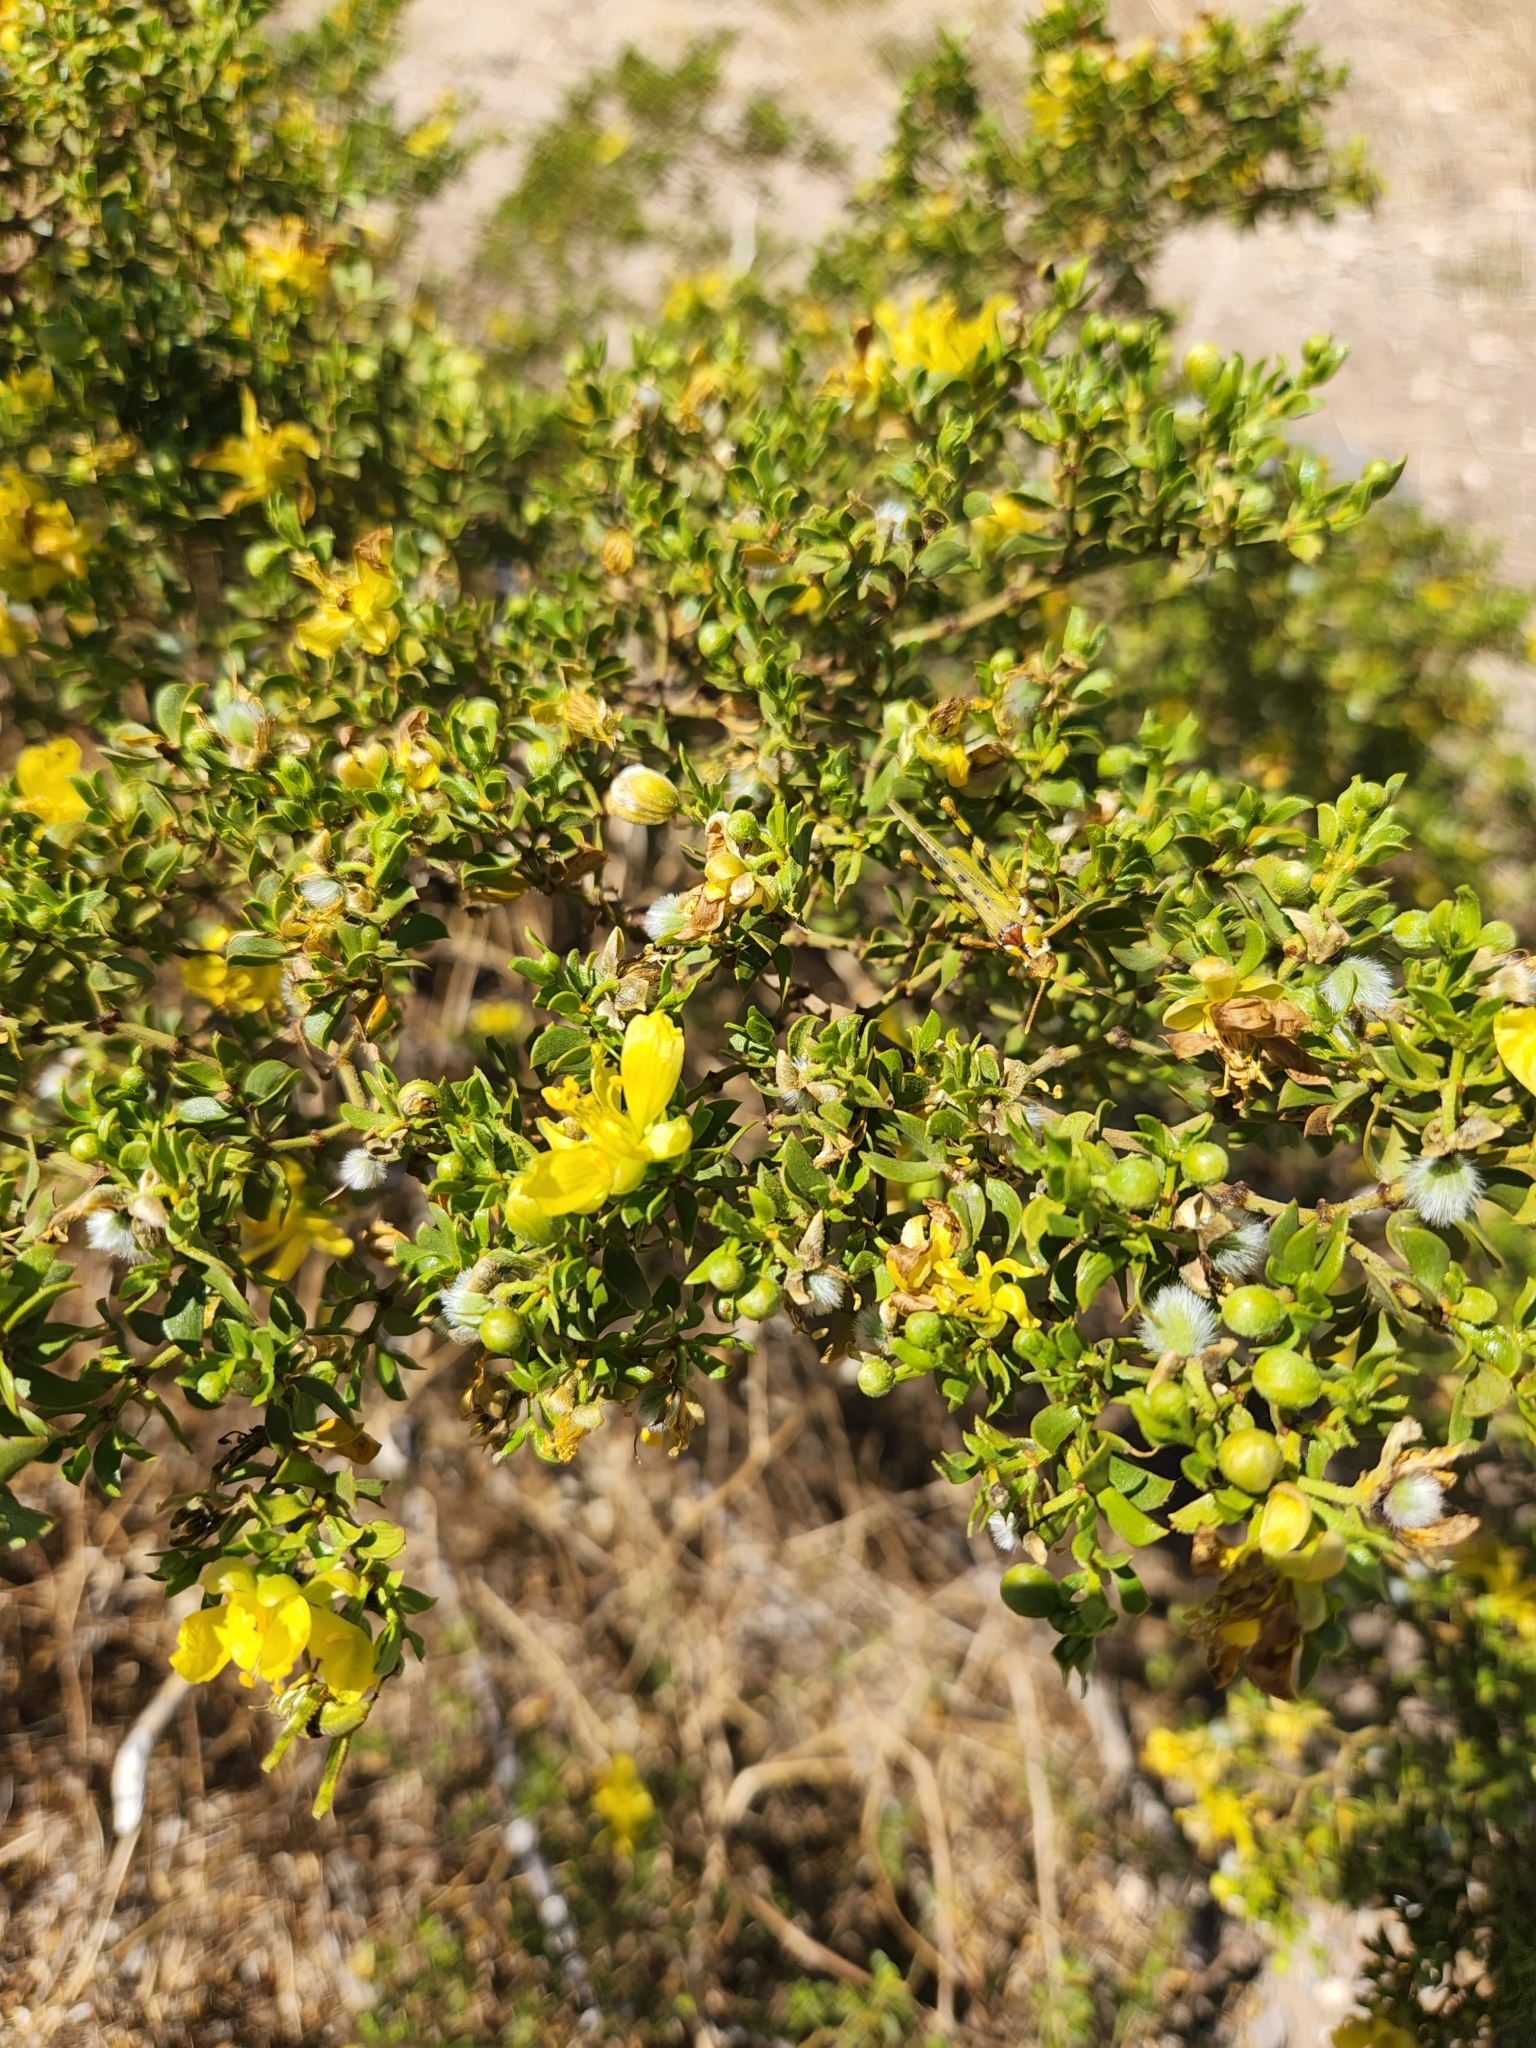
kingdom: Plantae
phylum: Tracheophyta
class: Magnoliopsida
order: Zygophyllales
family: Zygophyllaceae
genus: Larrea
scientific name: Larrea tridentata
